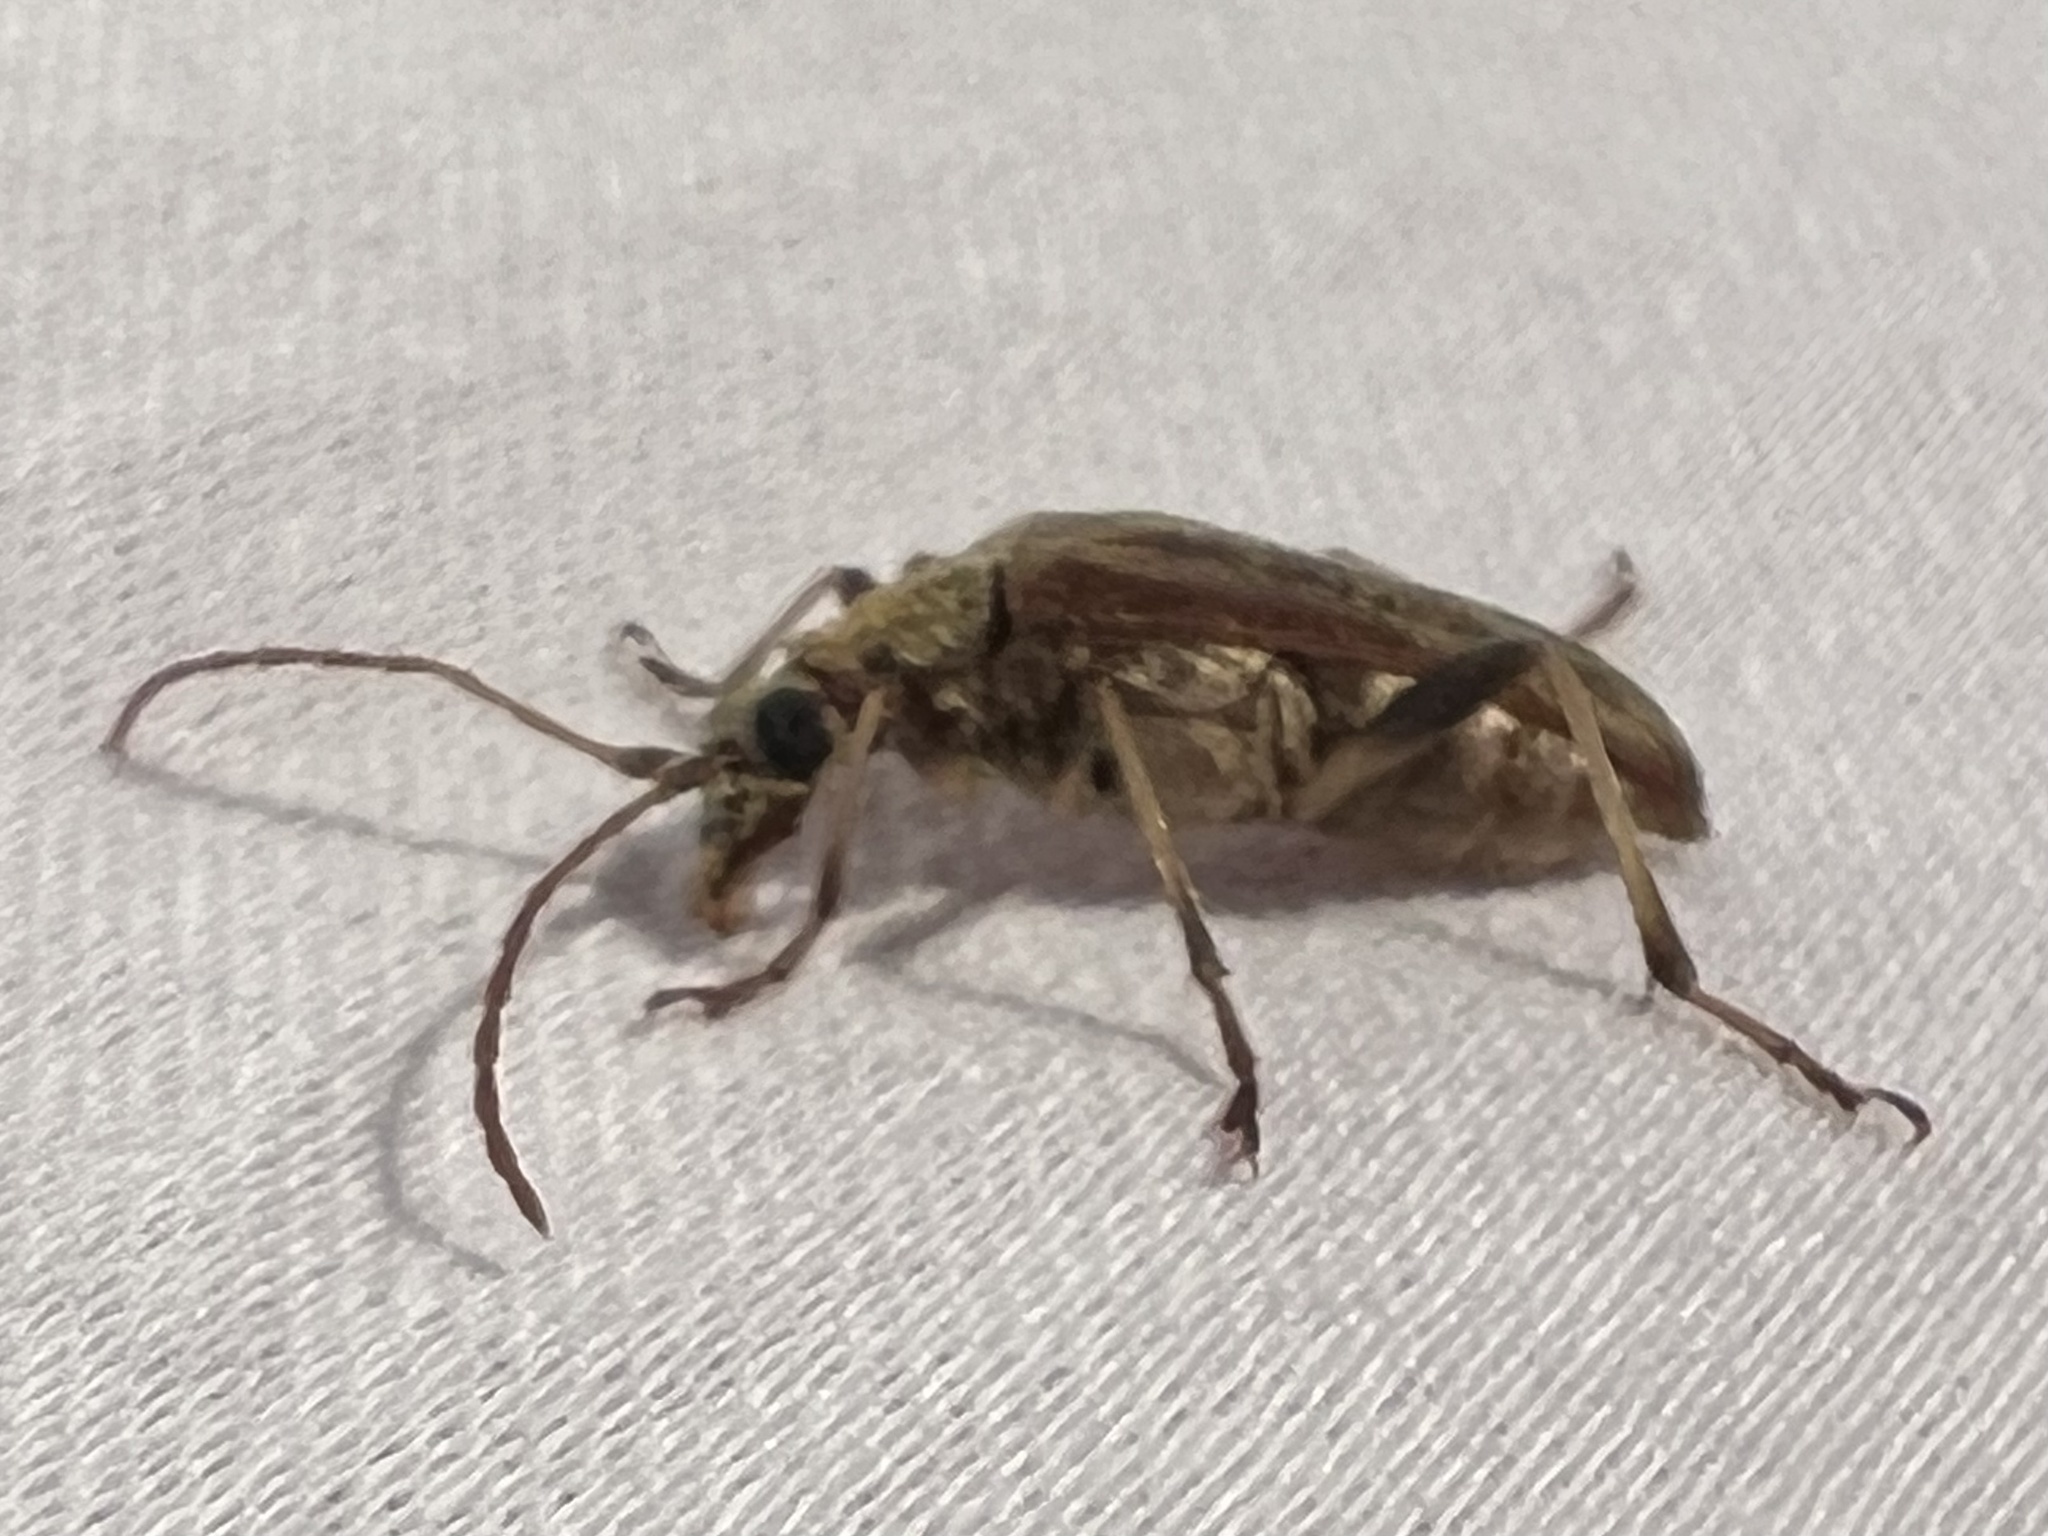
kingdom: Animalia
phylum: Arthropoda
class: Insecta
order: Coleoptera
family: Cerambycidae
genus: Stenocorus
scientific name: Stenocorus cinnamopterus
